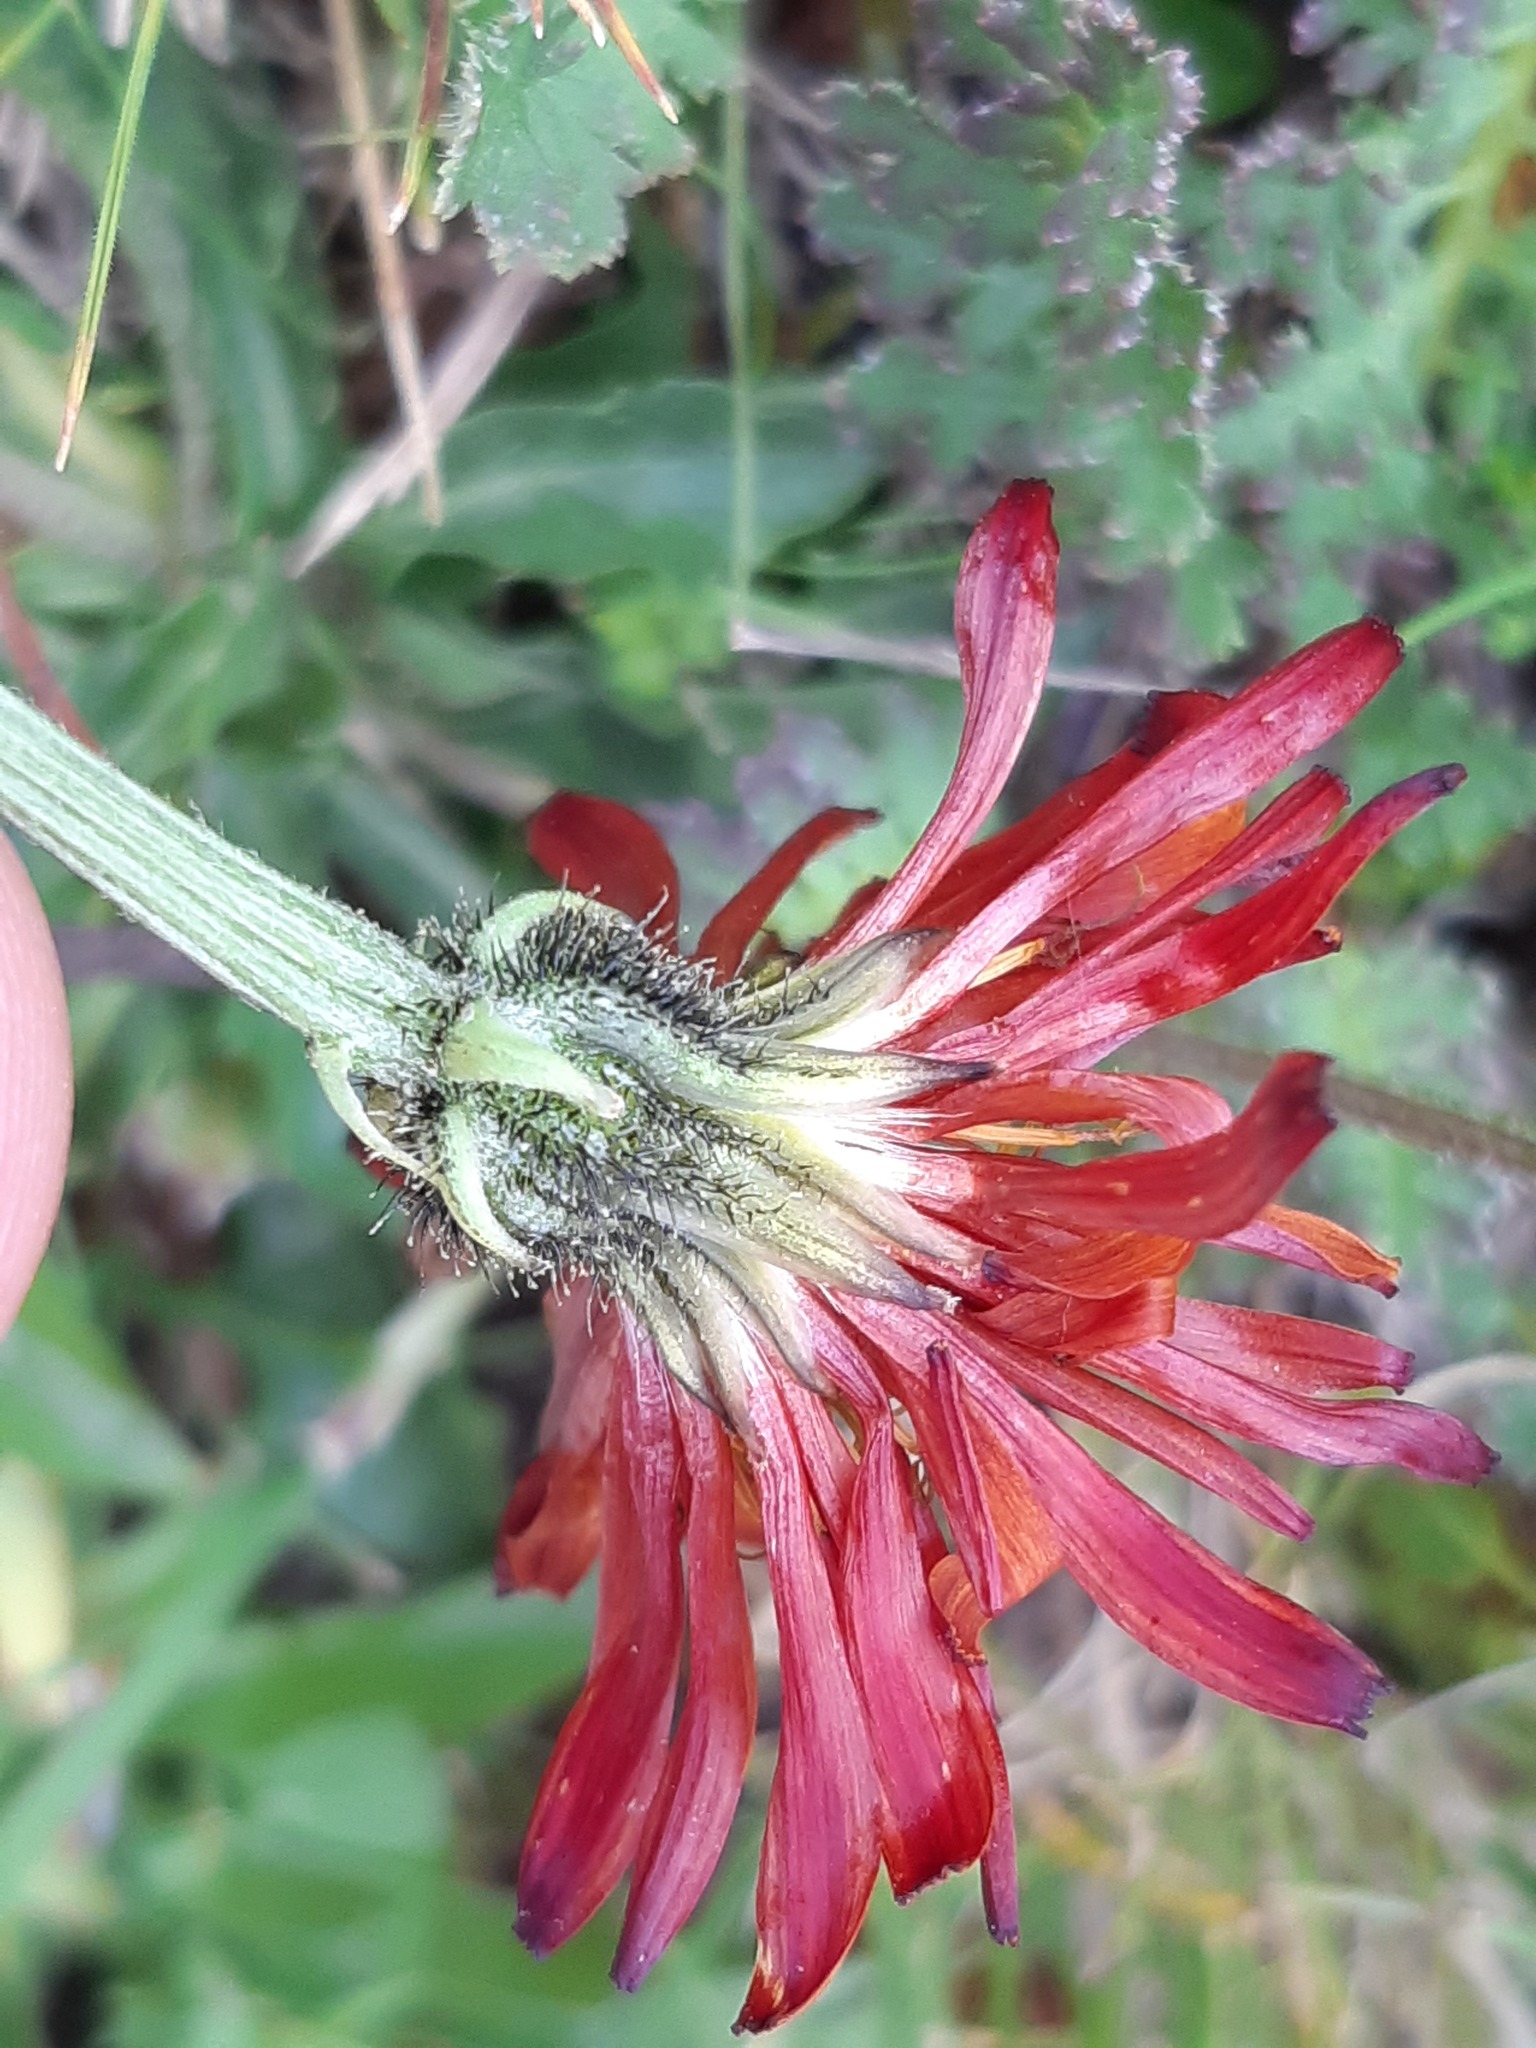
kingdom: Plantae
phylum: Tracheophyta
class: Magnoliopsida
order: Asterales
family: Asteraceae
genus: Crepis
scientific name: Crepis aurea
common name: Golden hawk's-beard
